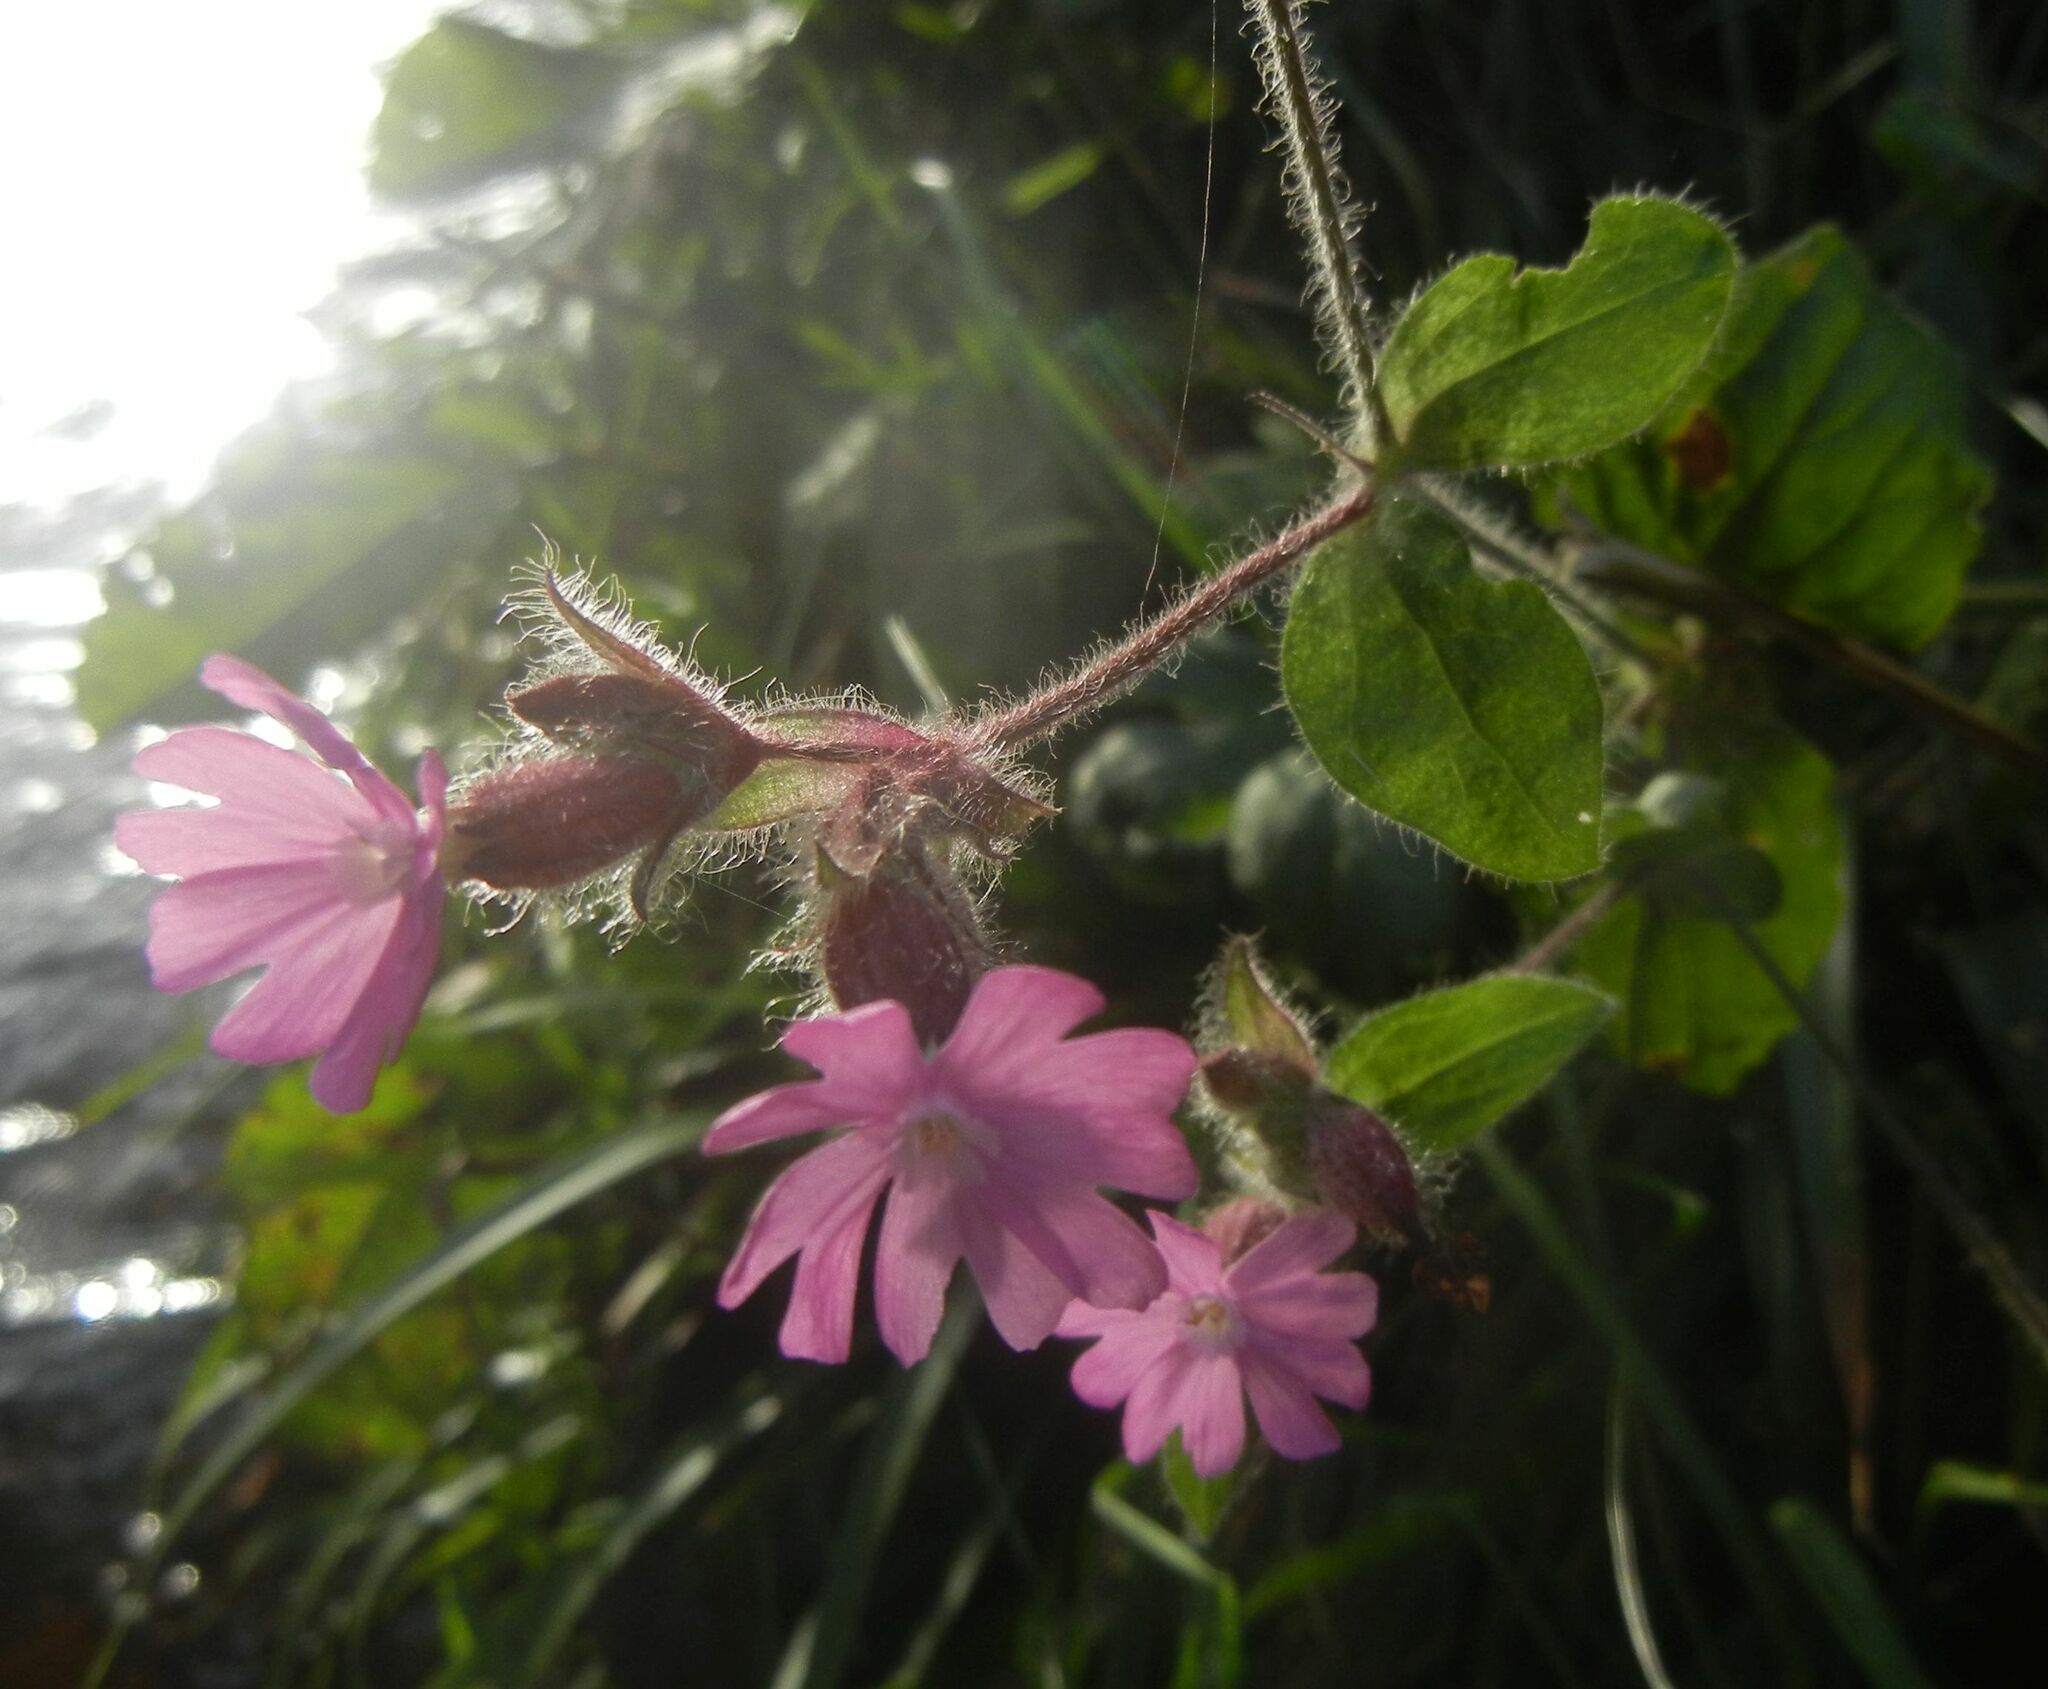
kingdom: Plantae
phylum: Tracheophyta
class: Magnoliopsida
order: Caryophyllales
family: Caryophyllaceae
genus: Silene
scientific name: Silene dioica
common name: Red campion
